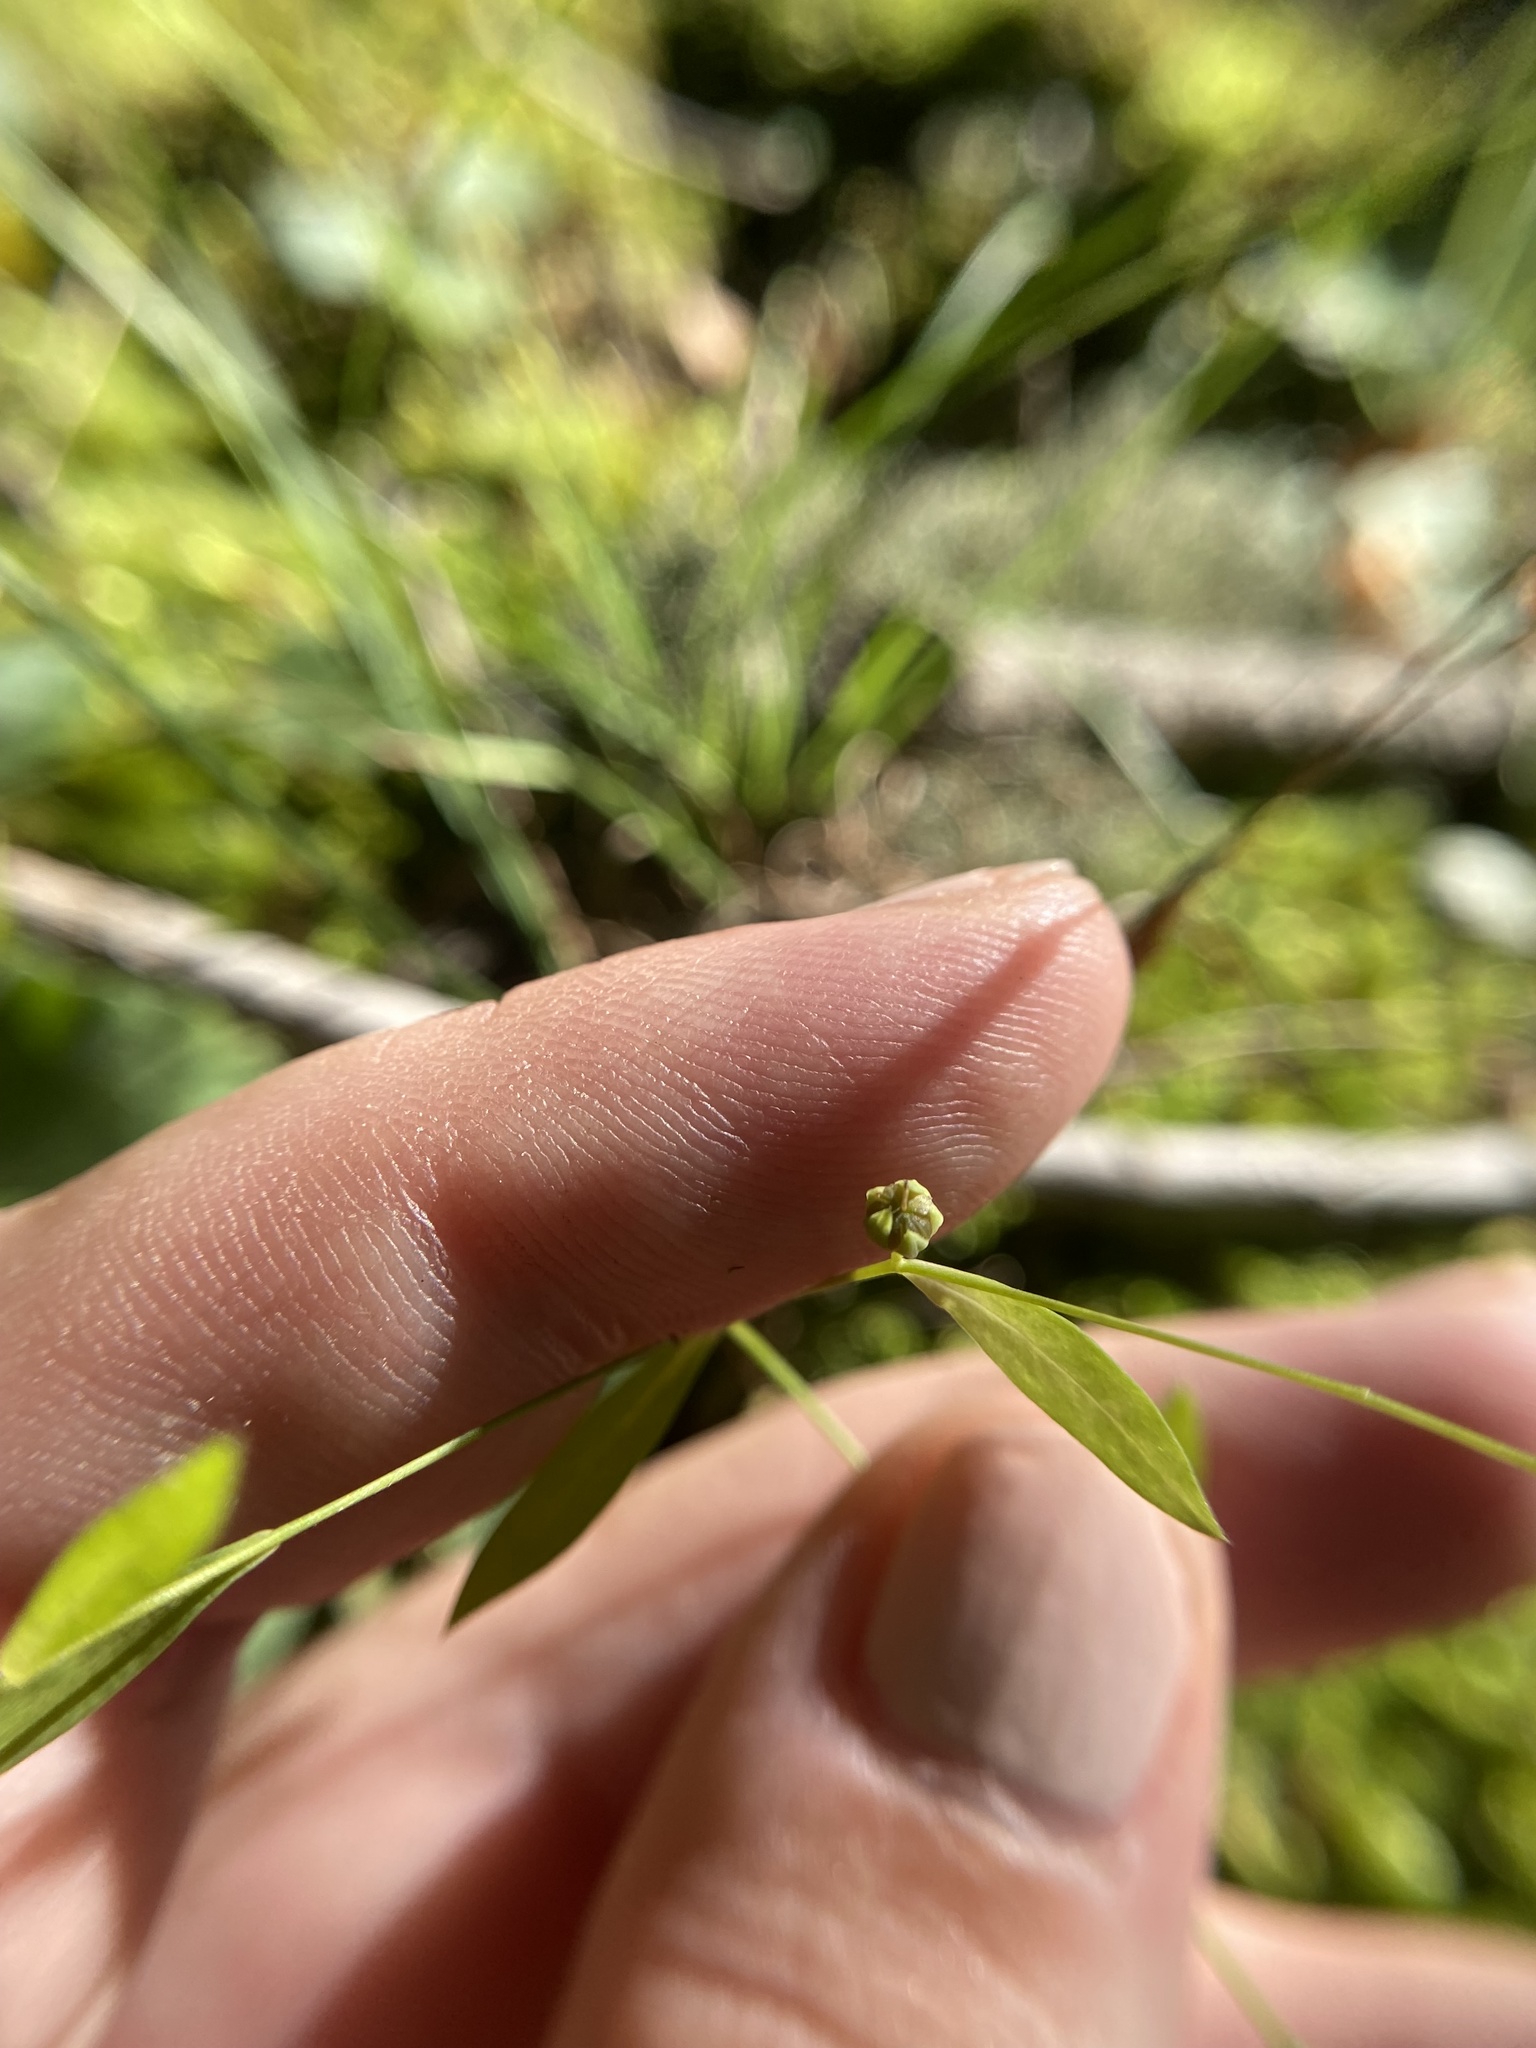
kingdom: Plantae
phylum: Tracheophyta
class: Magnoliopsida
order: Malpighiales
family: Linaceae
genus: Linum
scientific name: Linum medium
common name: Stiff yellow flax
